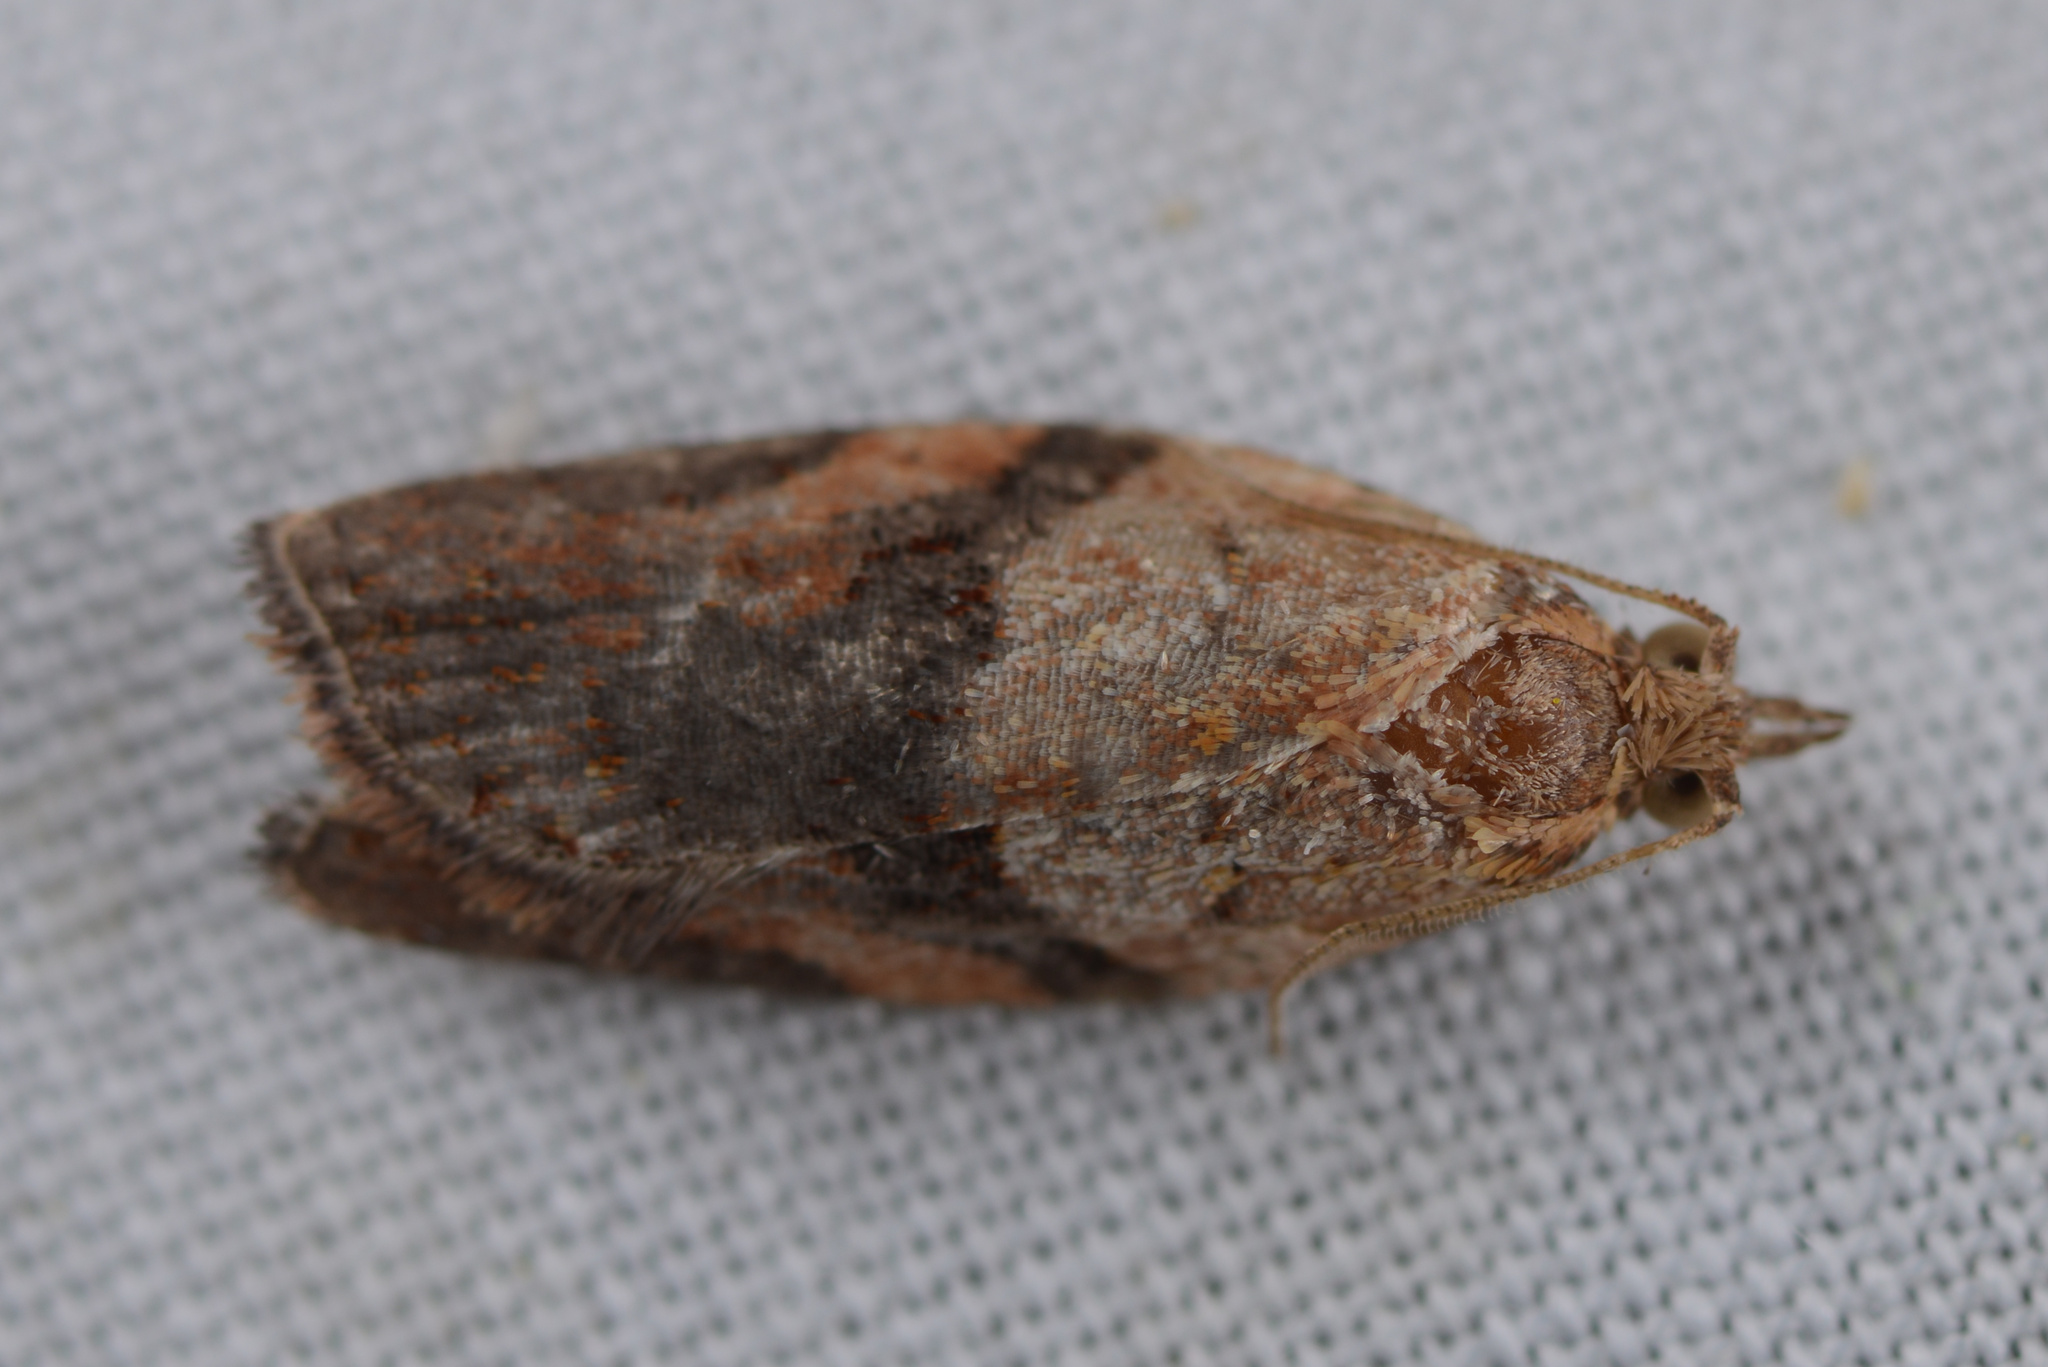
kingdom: Animalia
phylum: Arthropoda
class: Insecta
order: Lepidoptera
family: Tortricidae
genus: Epiphyas
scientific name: Epiphyas postvittana
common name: Light brown apple moth
